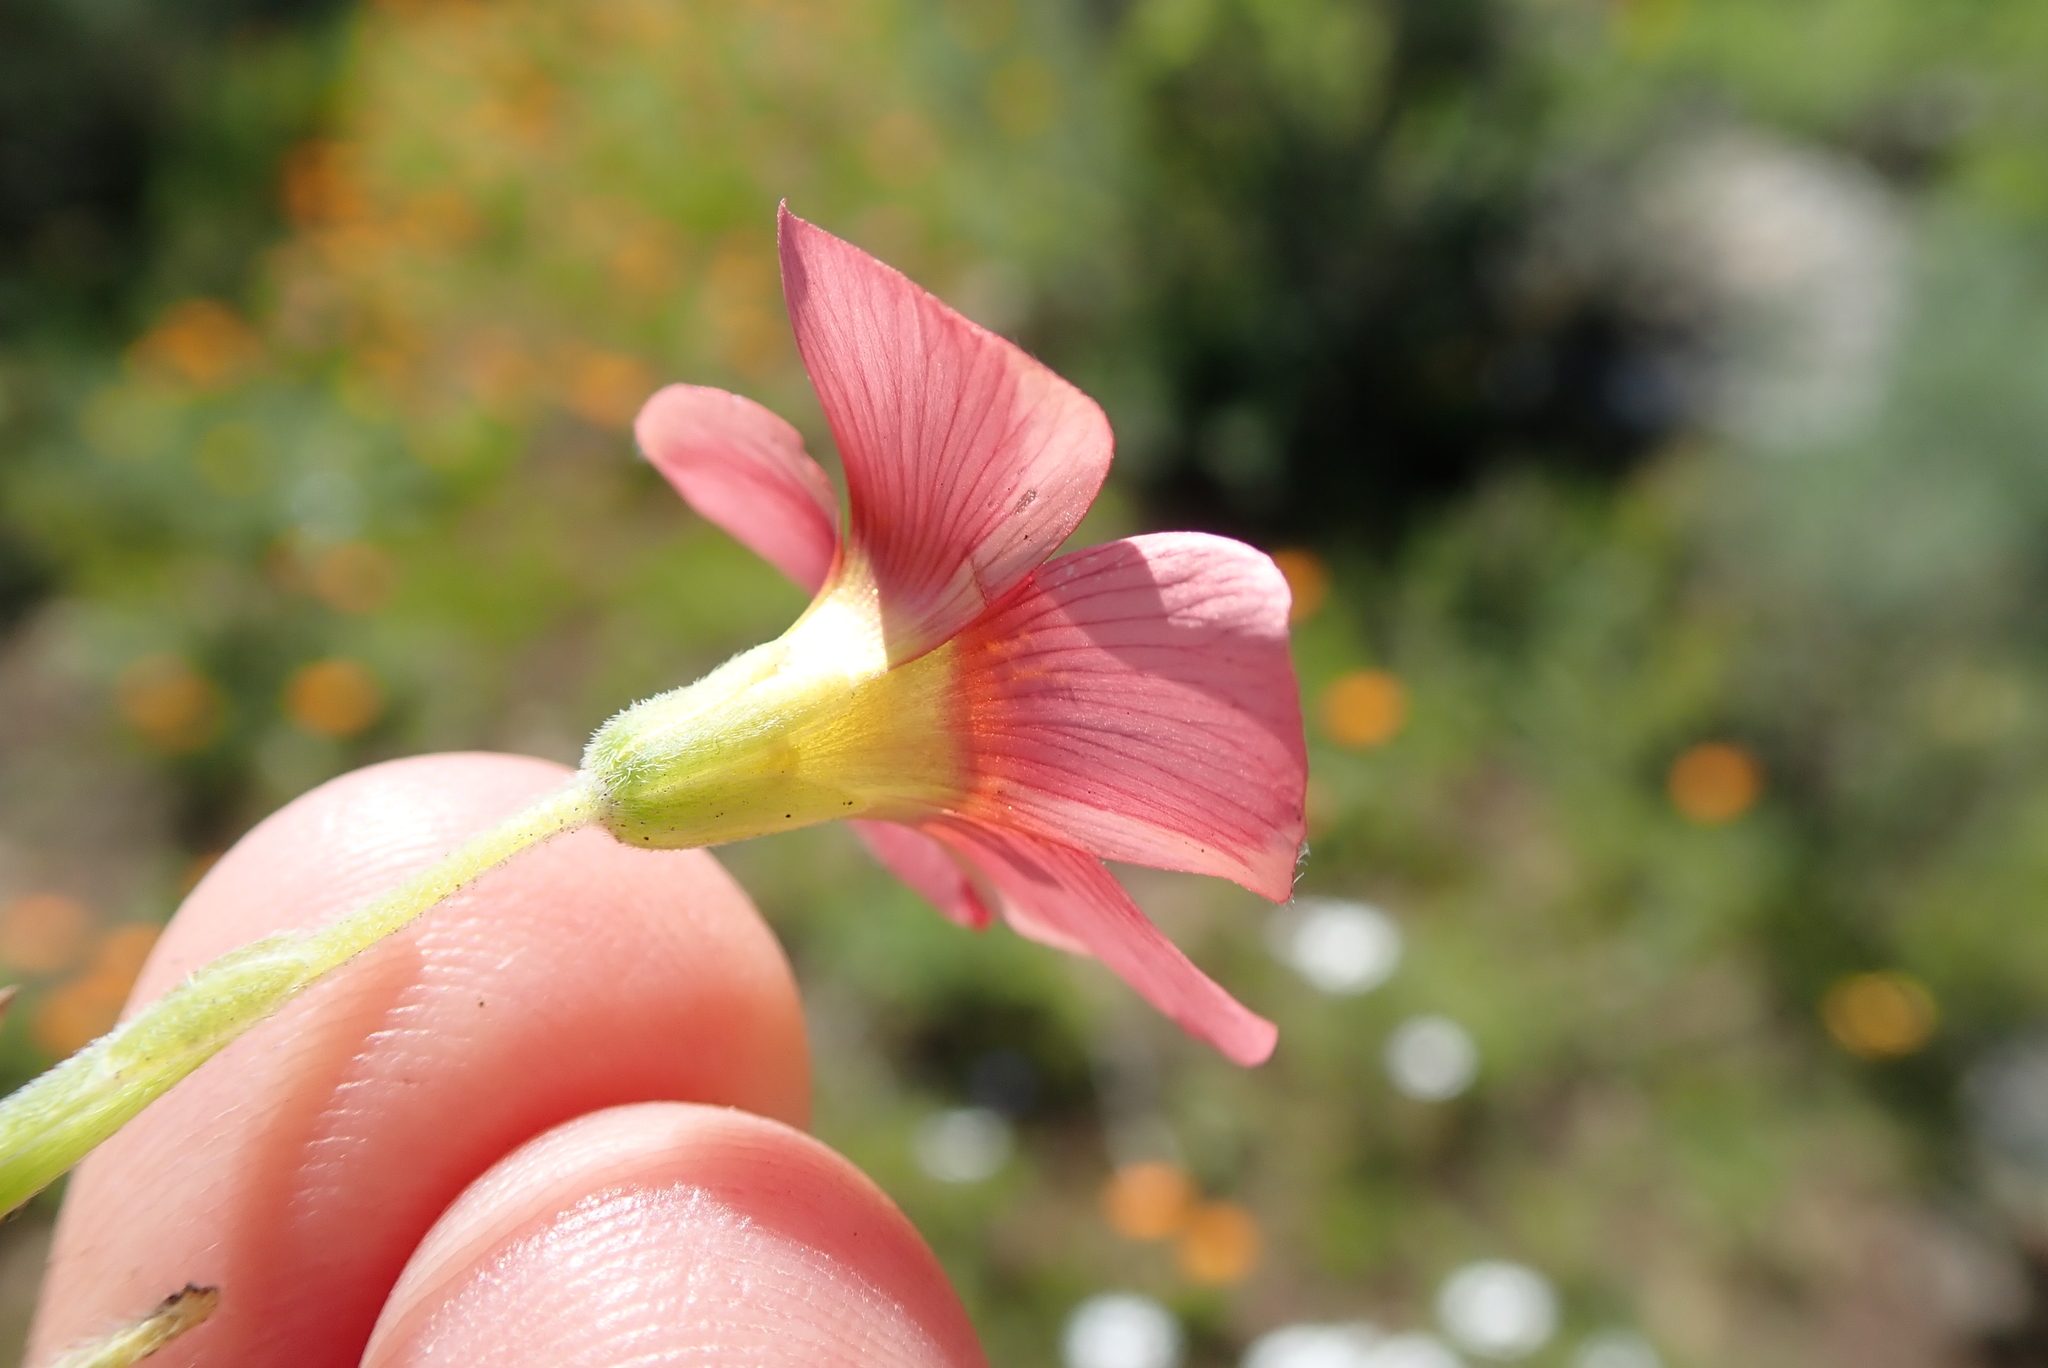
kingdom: Plantae
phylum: Tracheophyta
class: Magnoliopsida
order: Oxalidales
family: Oxalidaceae
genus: Oxalis
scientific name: Oxalis obtusa
